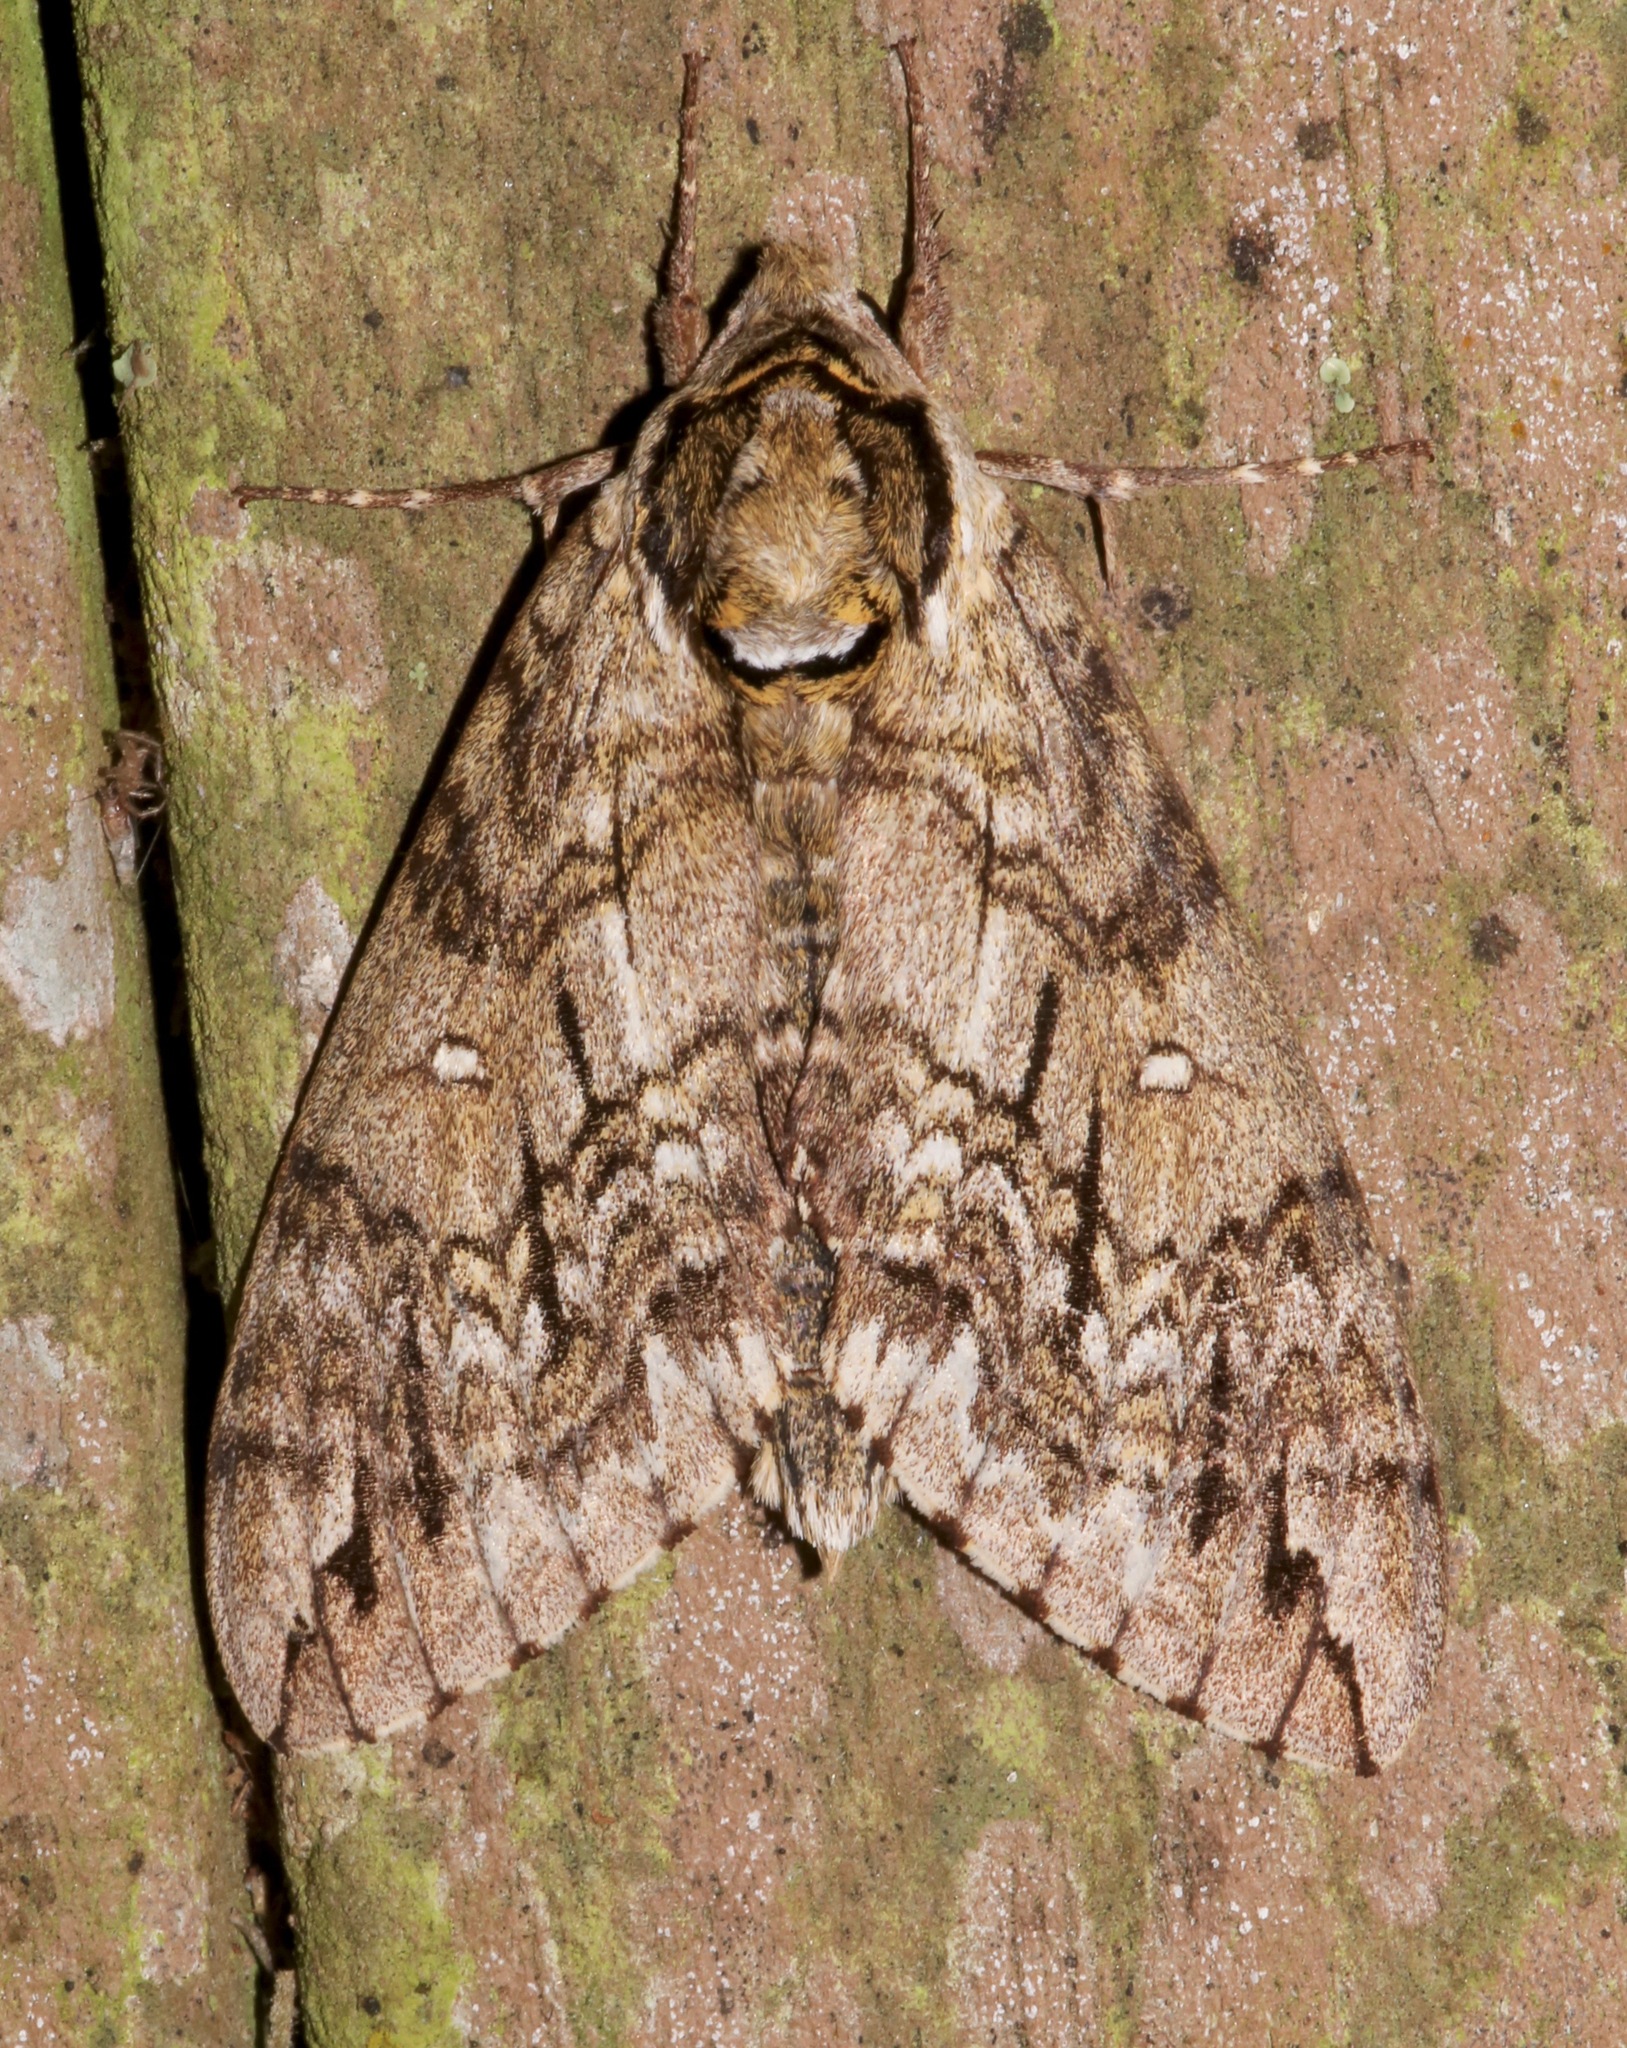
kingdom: Animalia
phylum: Arthropoda
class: Insecta
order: Lepidoptera
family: Sphingidae
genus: Ceratomia
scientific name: Ceratomia undulosa
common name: Waved sphinx
